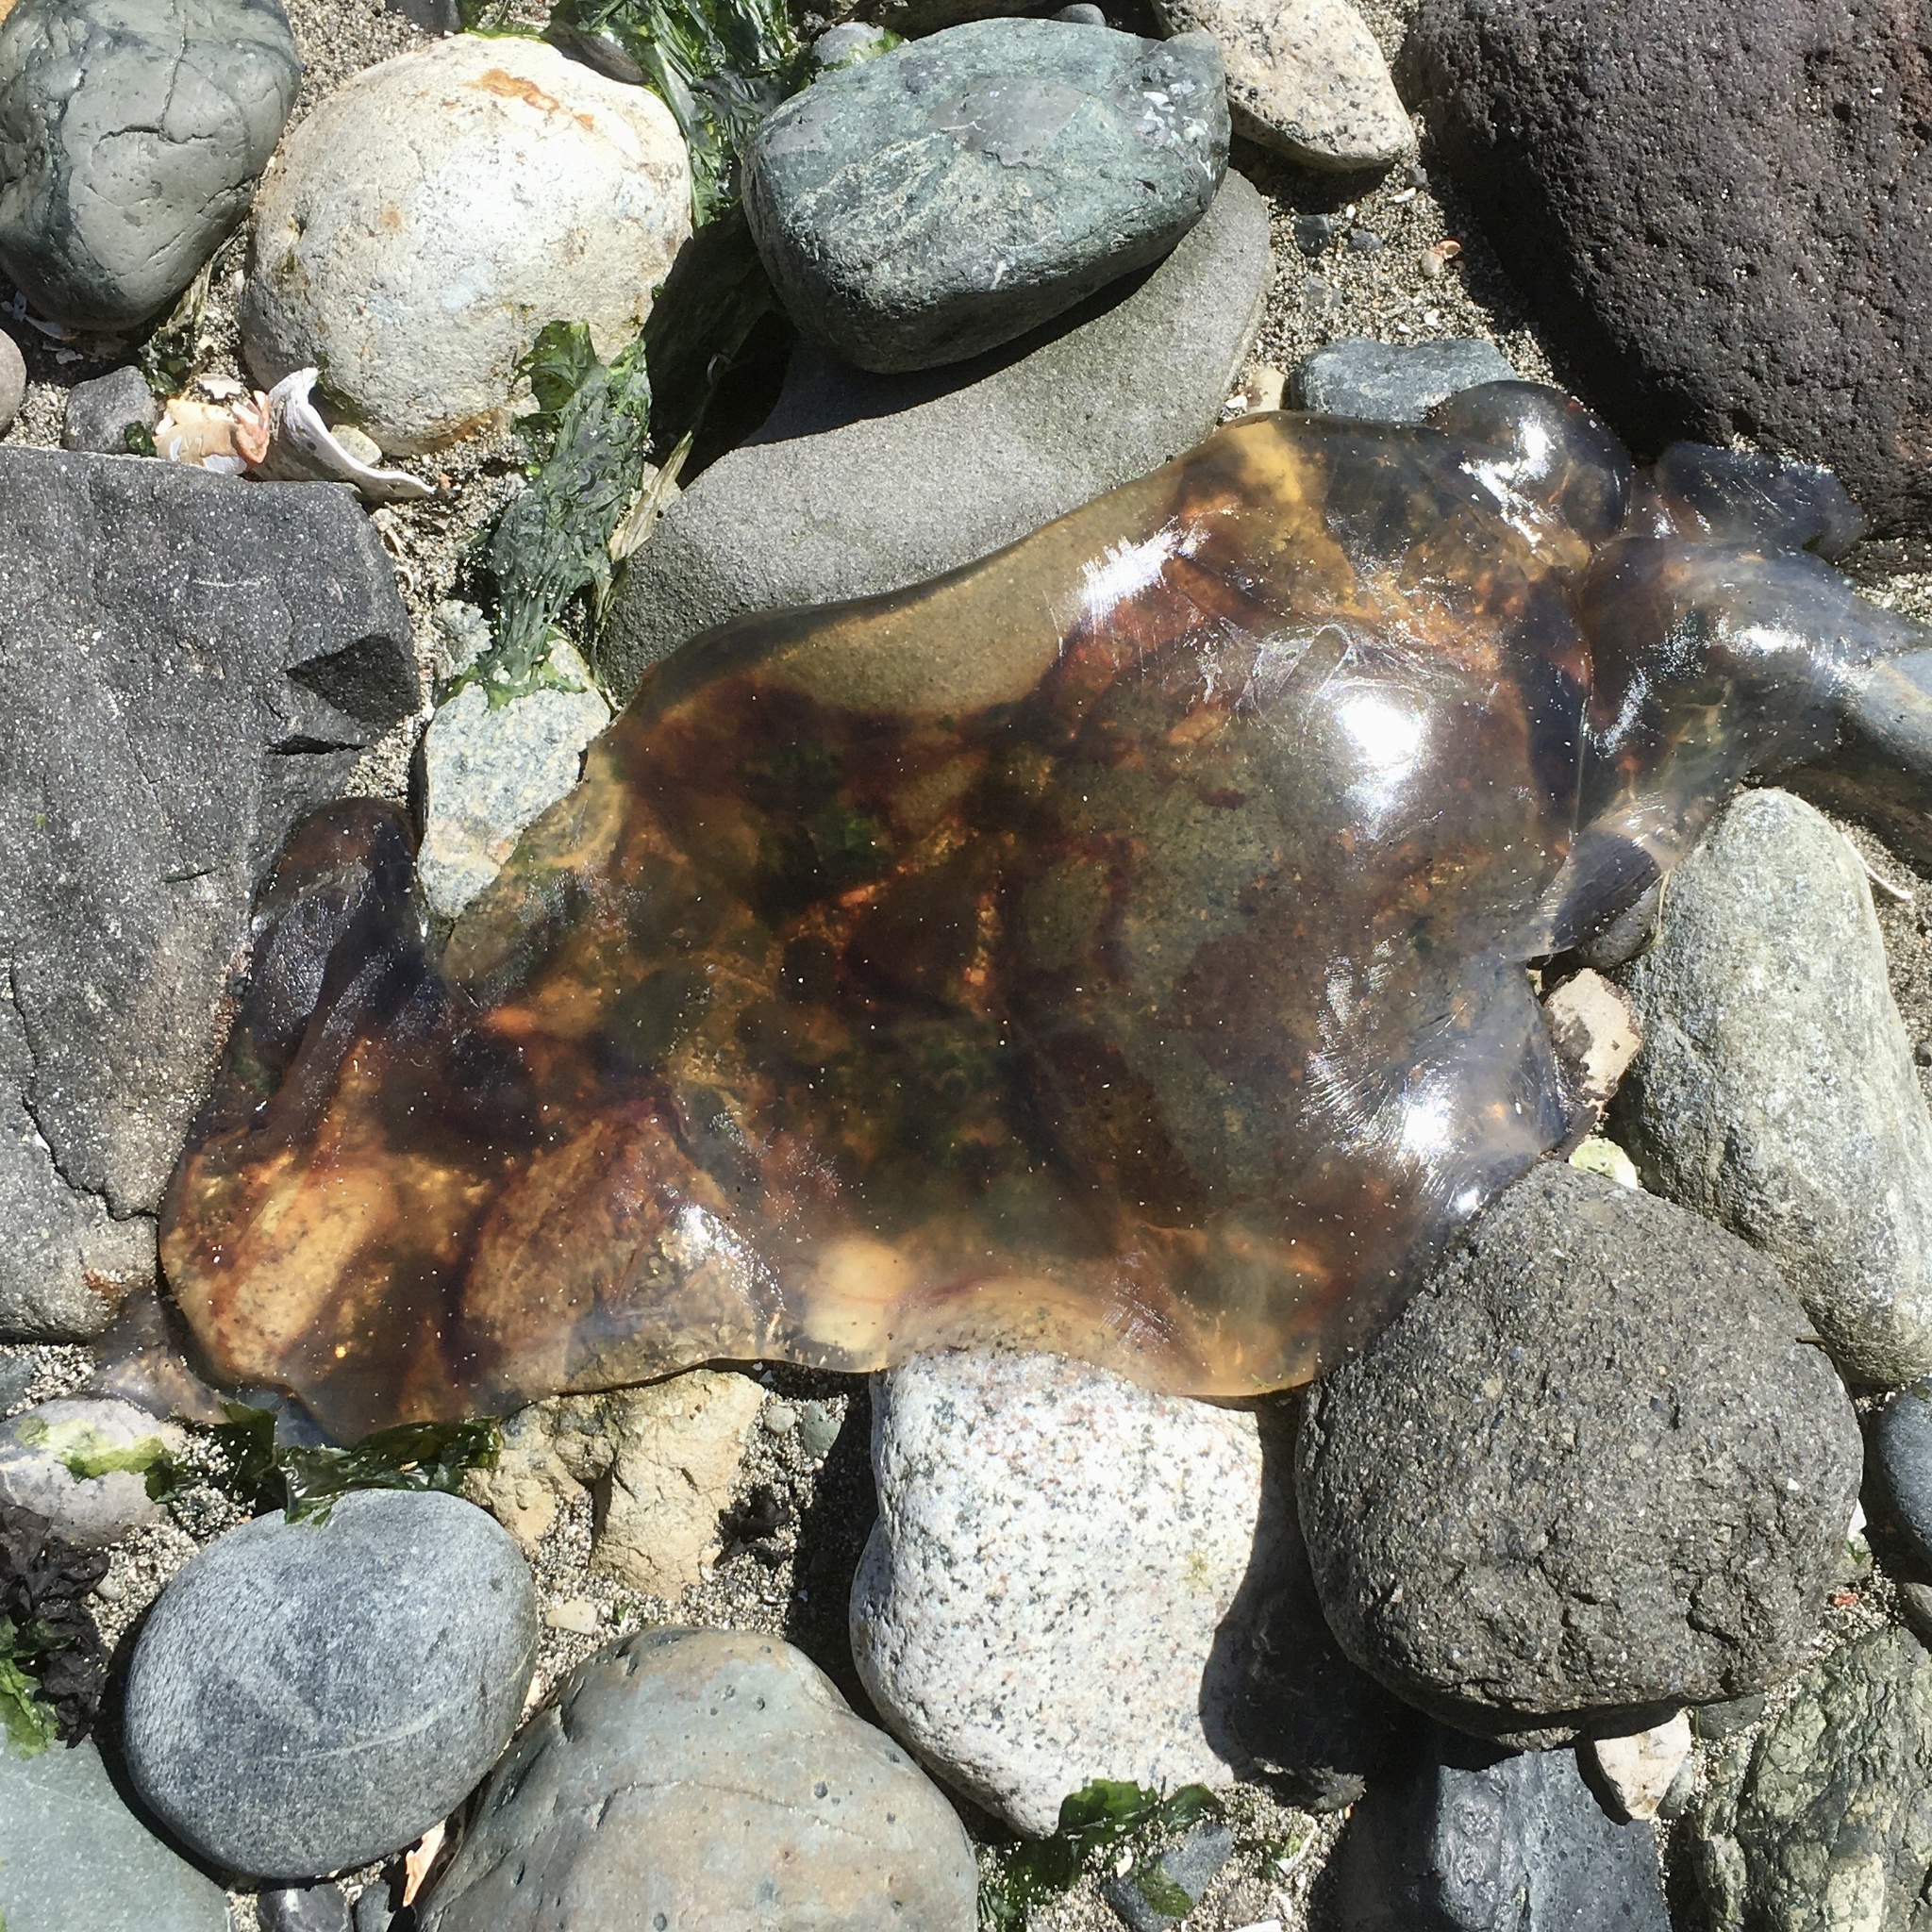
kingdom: Animalia
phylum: Cnidaria
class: Scyphozoa
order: Semaeostomeae
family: Cyaneidae
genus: Cyanea
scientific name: Cyanea ferruginea
